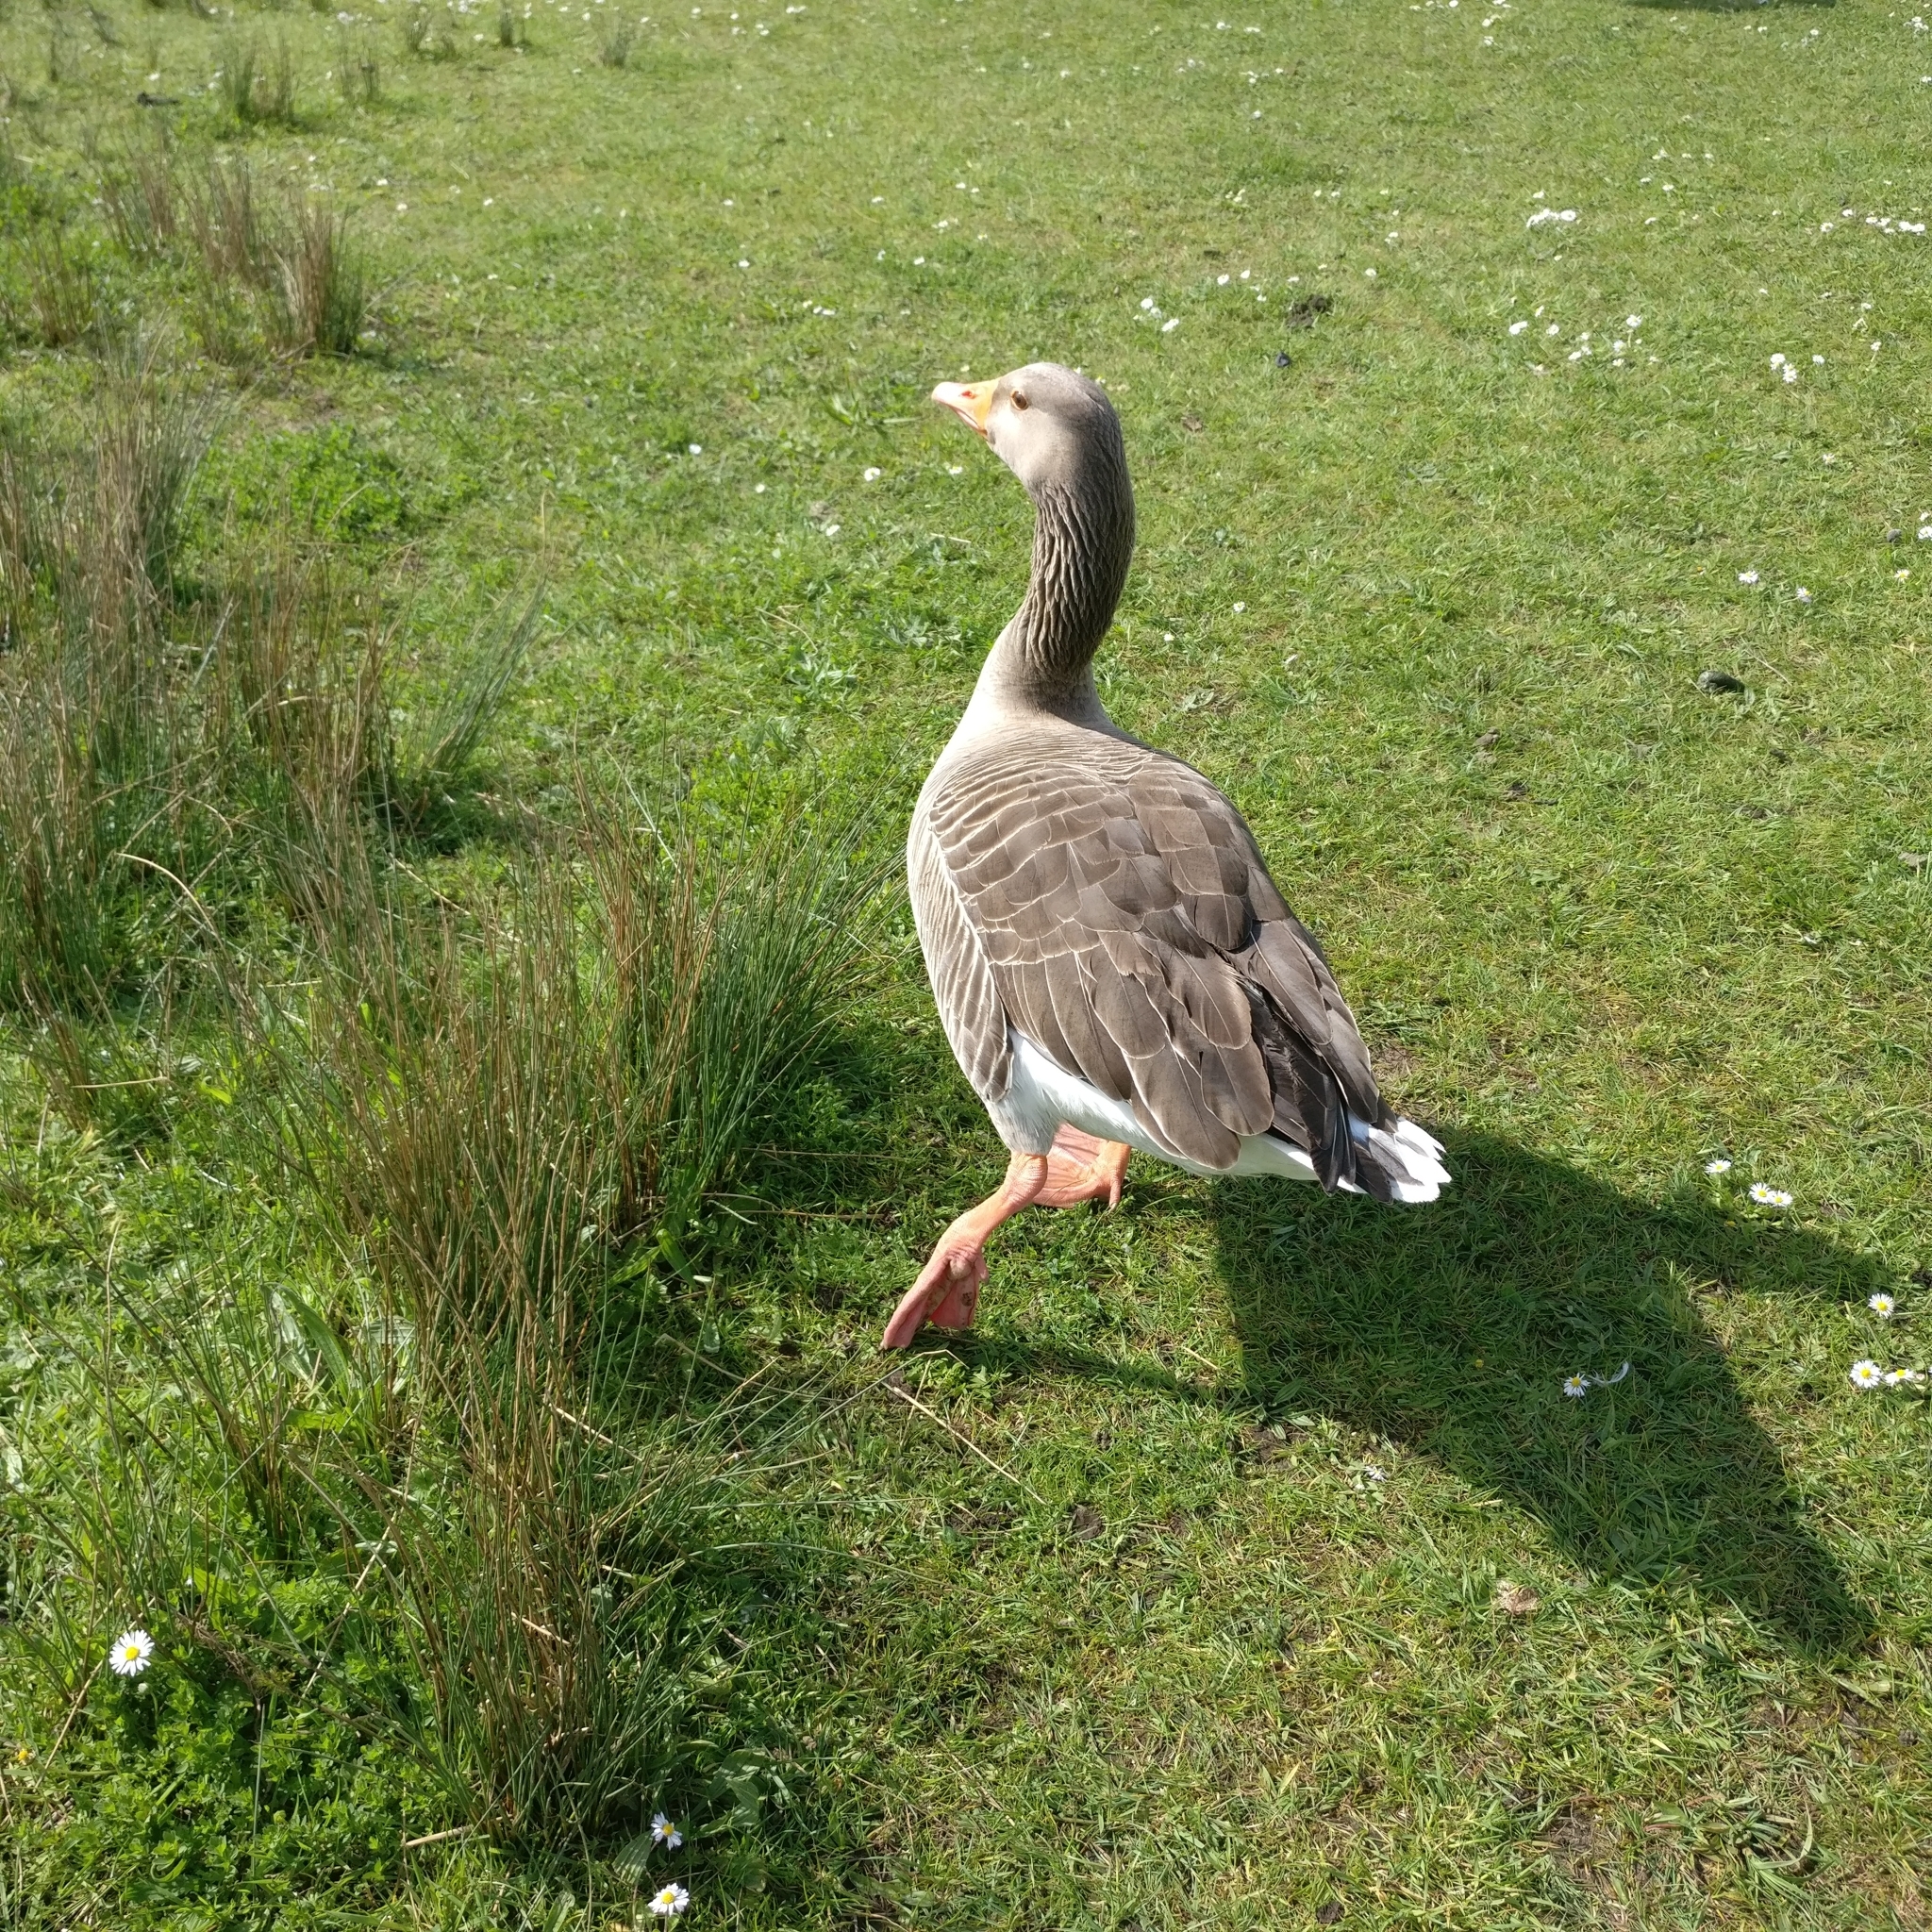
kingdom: Animalia
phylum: Chordata
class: Aves
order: Anseriformes
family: Anatidae
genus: Anser
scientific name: Anser anser
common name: Greylag goose
